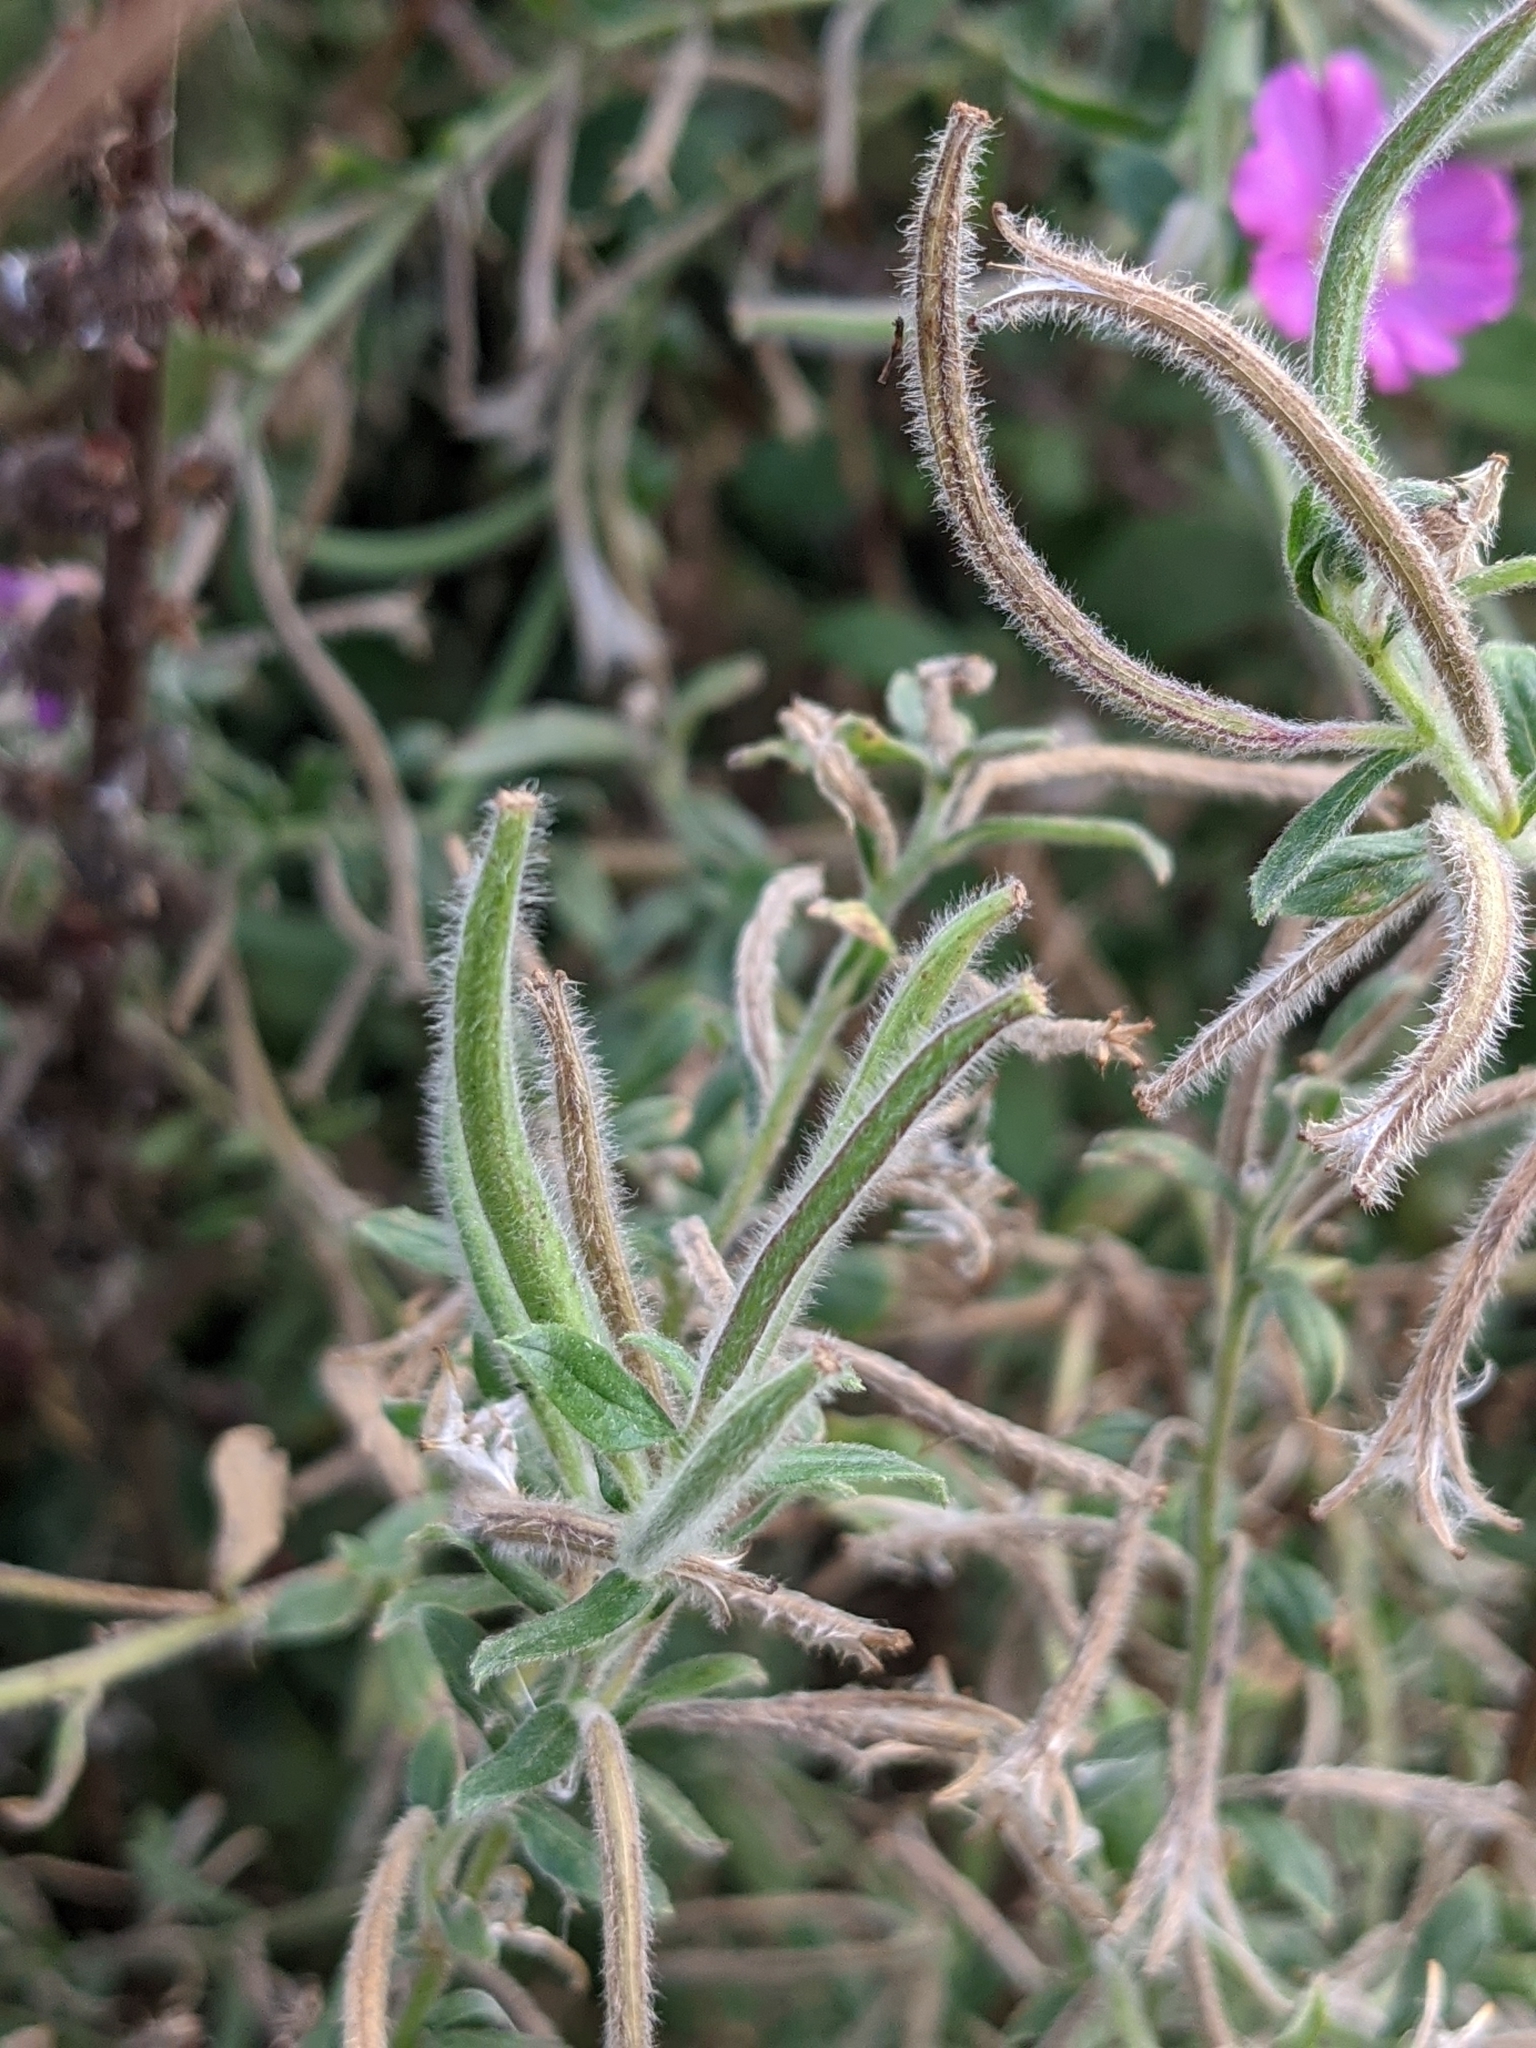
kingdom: Plantae
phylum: Tracheophyta
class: Magnoliopsida
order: Myrtales
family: Onagraceae
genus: Epilobium
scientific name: Epilobium hirsutum
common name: Great willowherb
